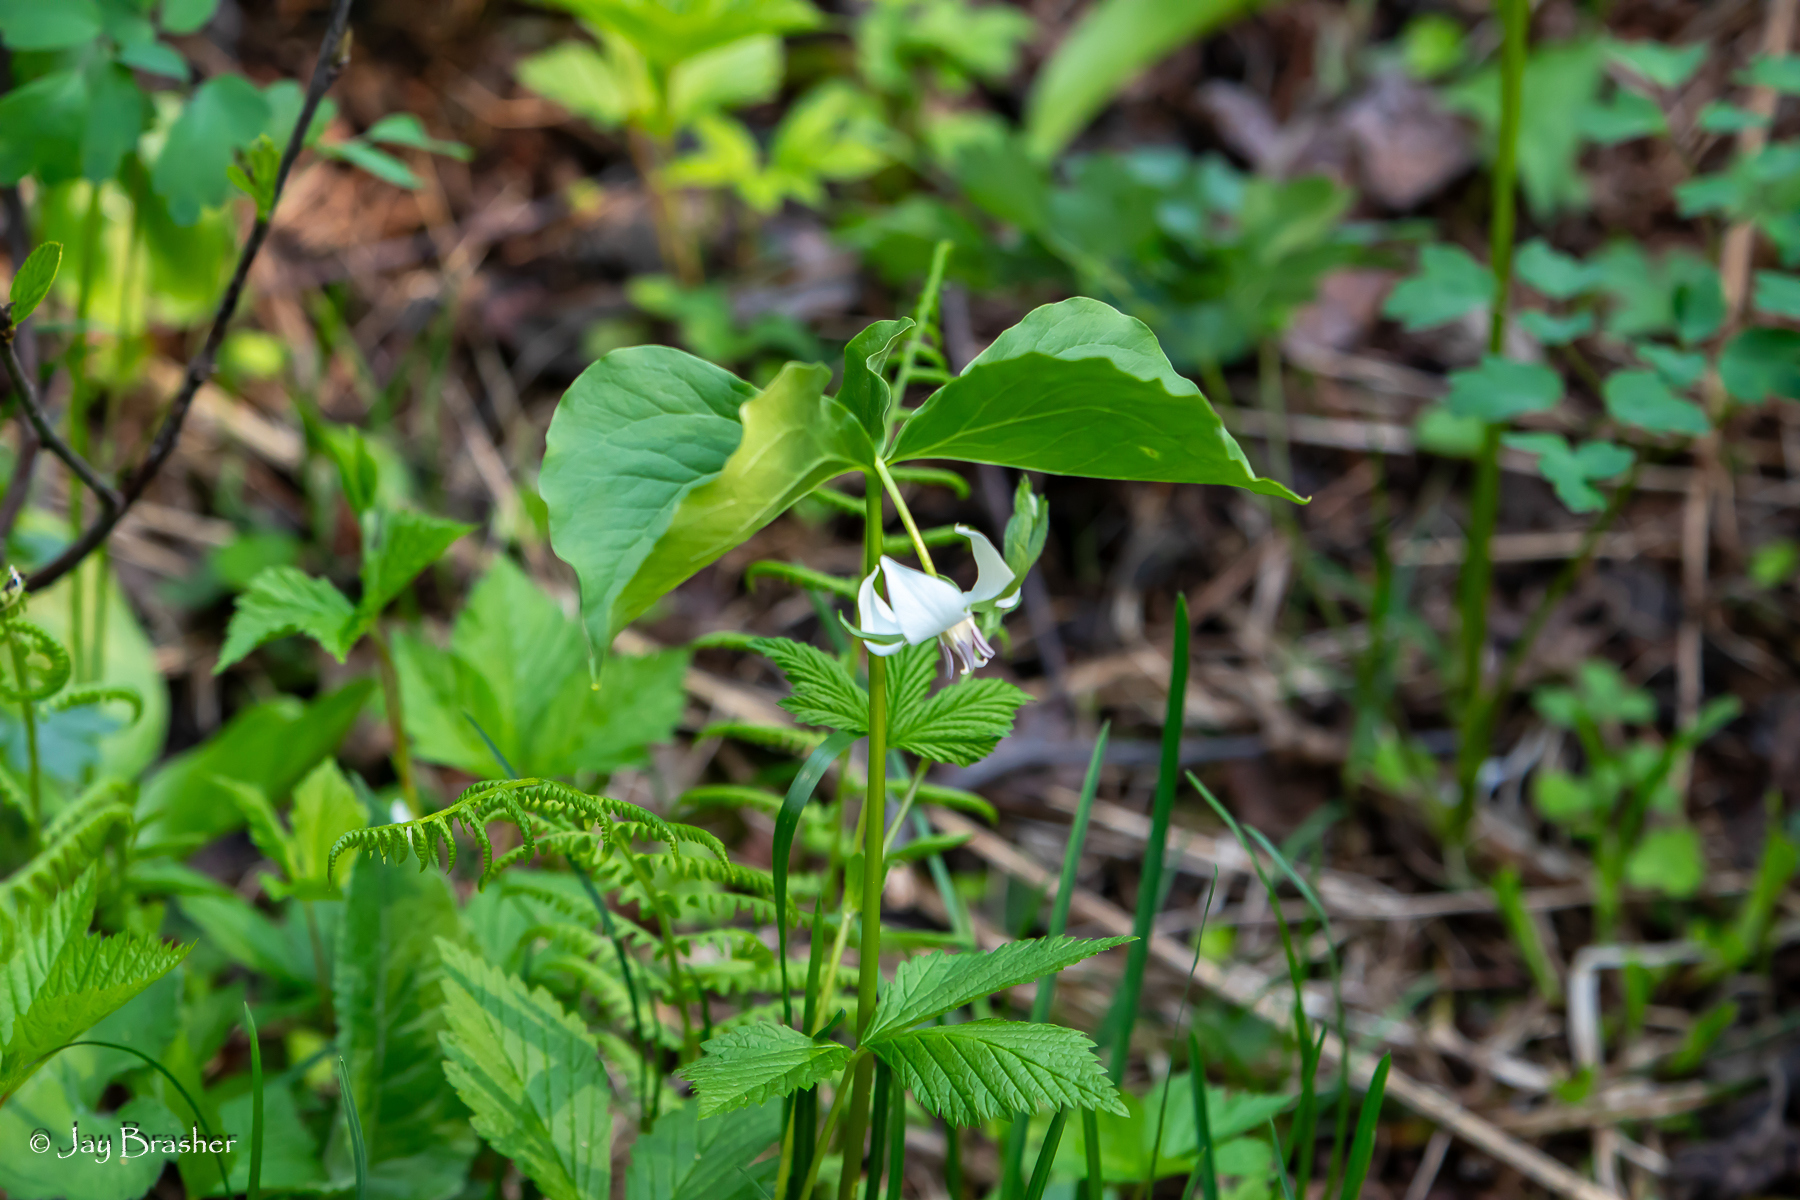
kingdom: Plantae
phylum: Tracheophyta
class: Liliopsida
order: Liliales
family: Melanthiaceae
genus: Trillium
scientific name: Trillium cernuum
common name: Nodding trillium
